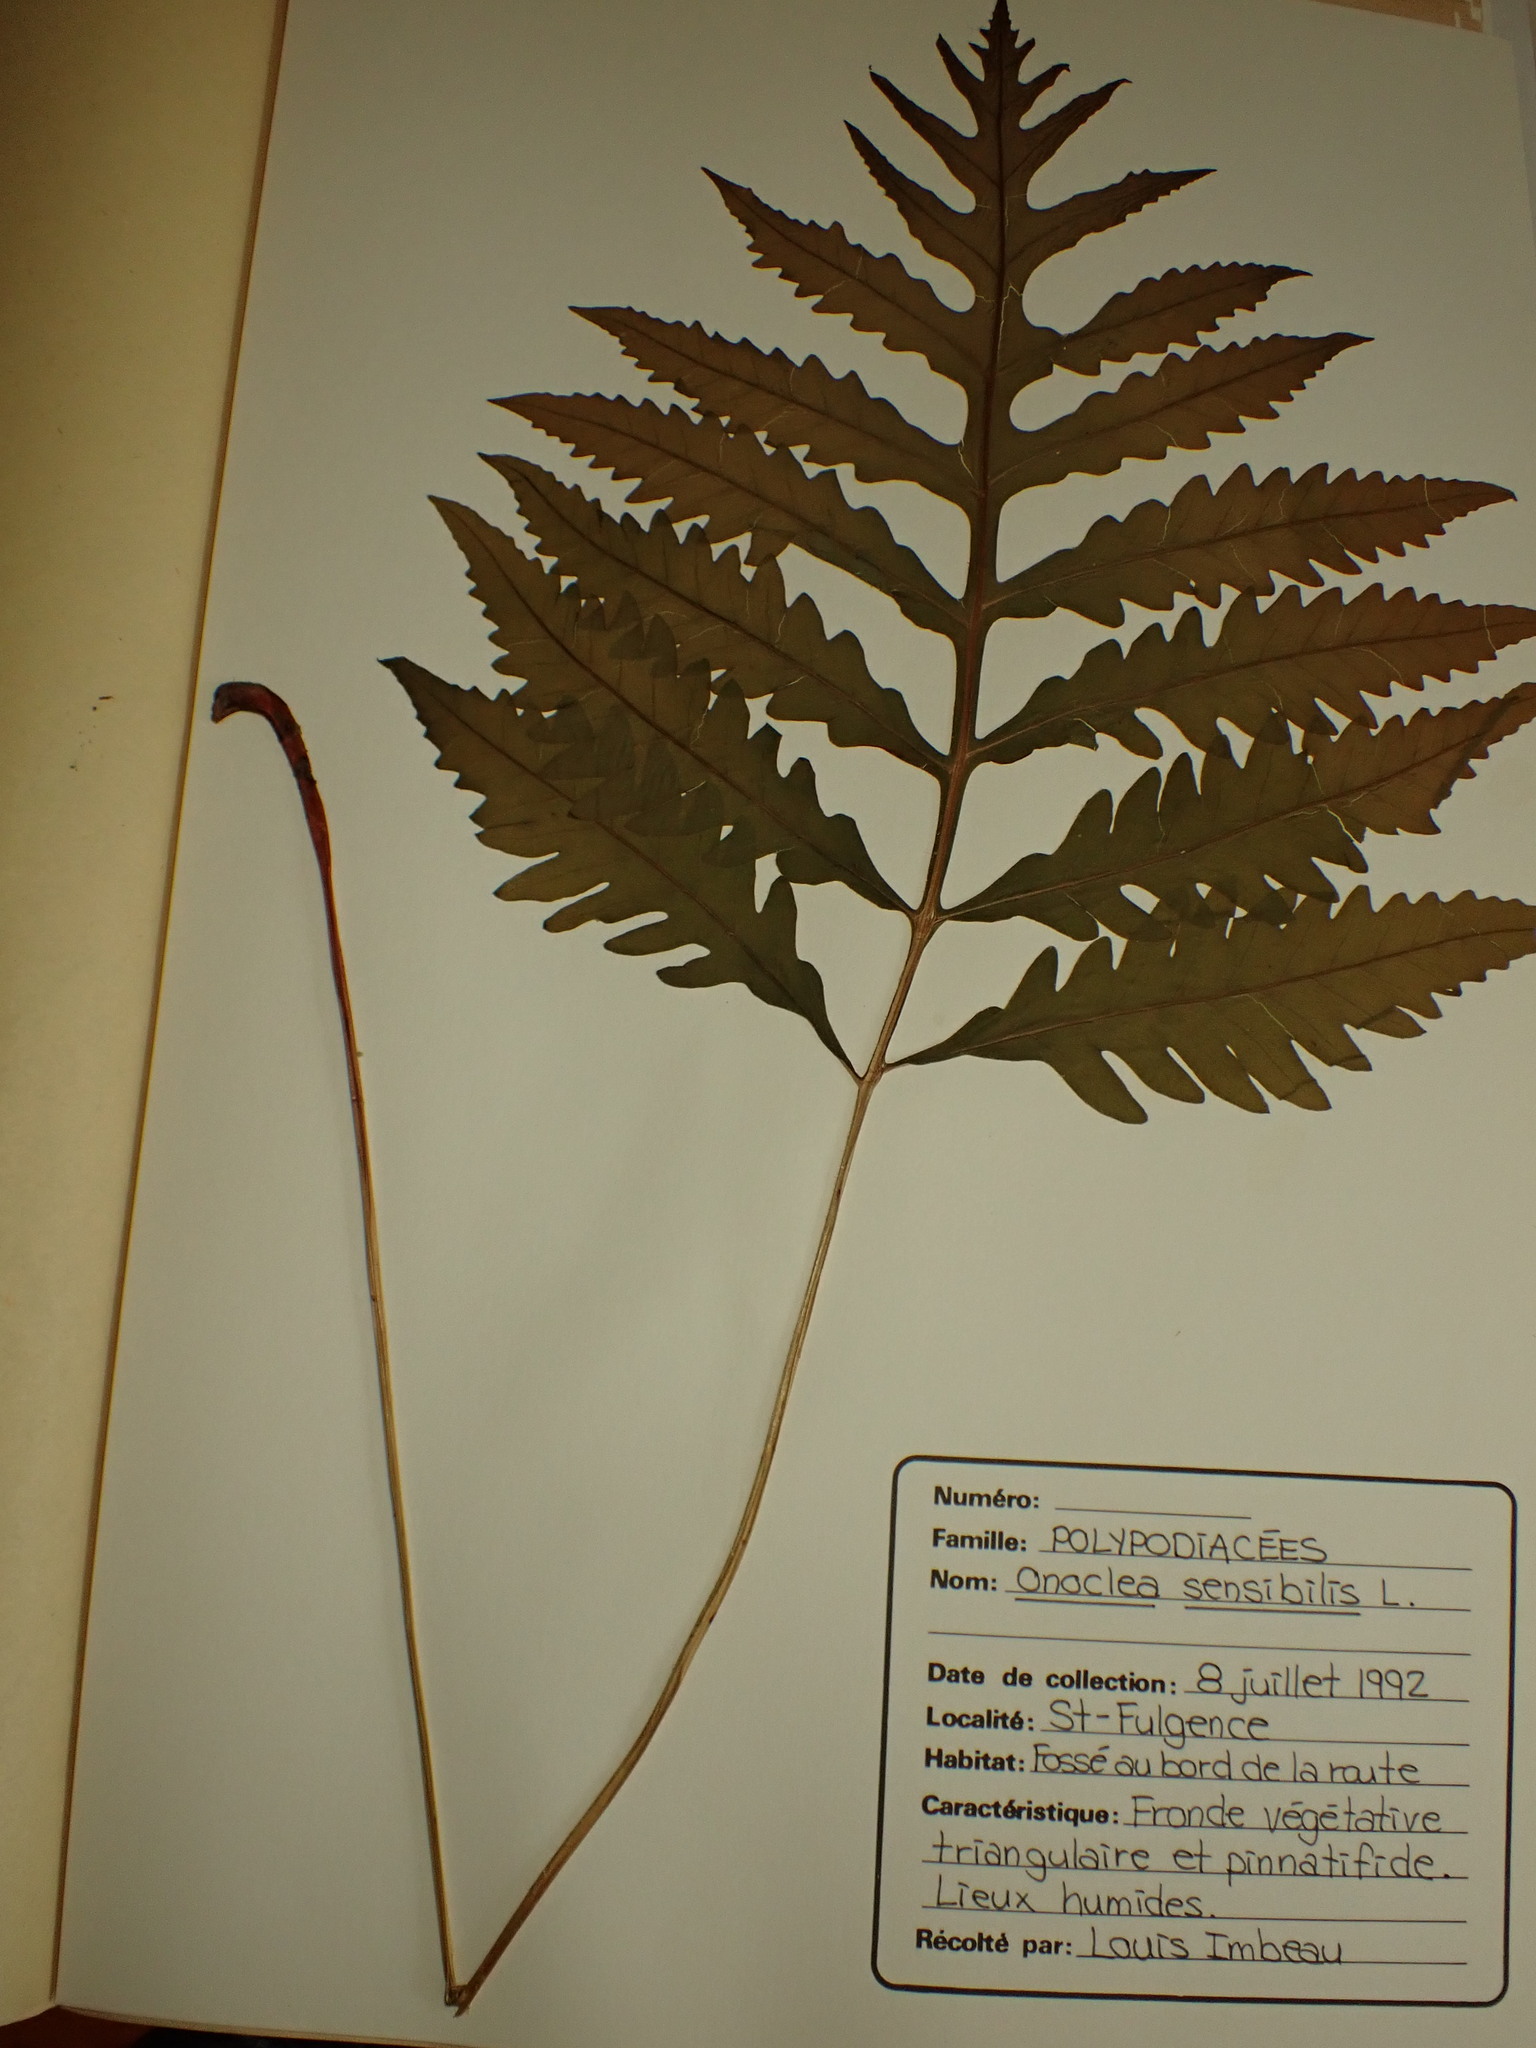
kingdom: Plantae
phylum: Tracheophyta
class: Polypodiopsida
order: Polypodiales
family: Onocleaceae
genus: Onoclea
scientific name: Onoclea sensibilis
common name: Sensitive fern
